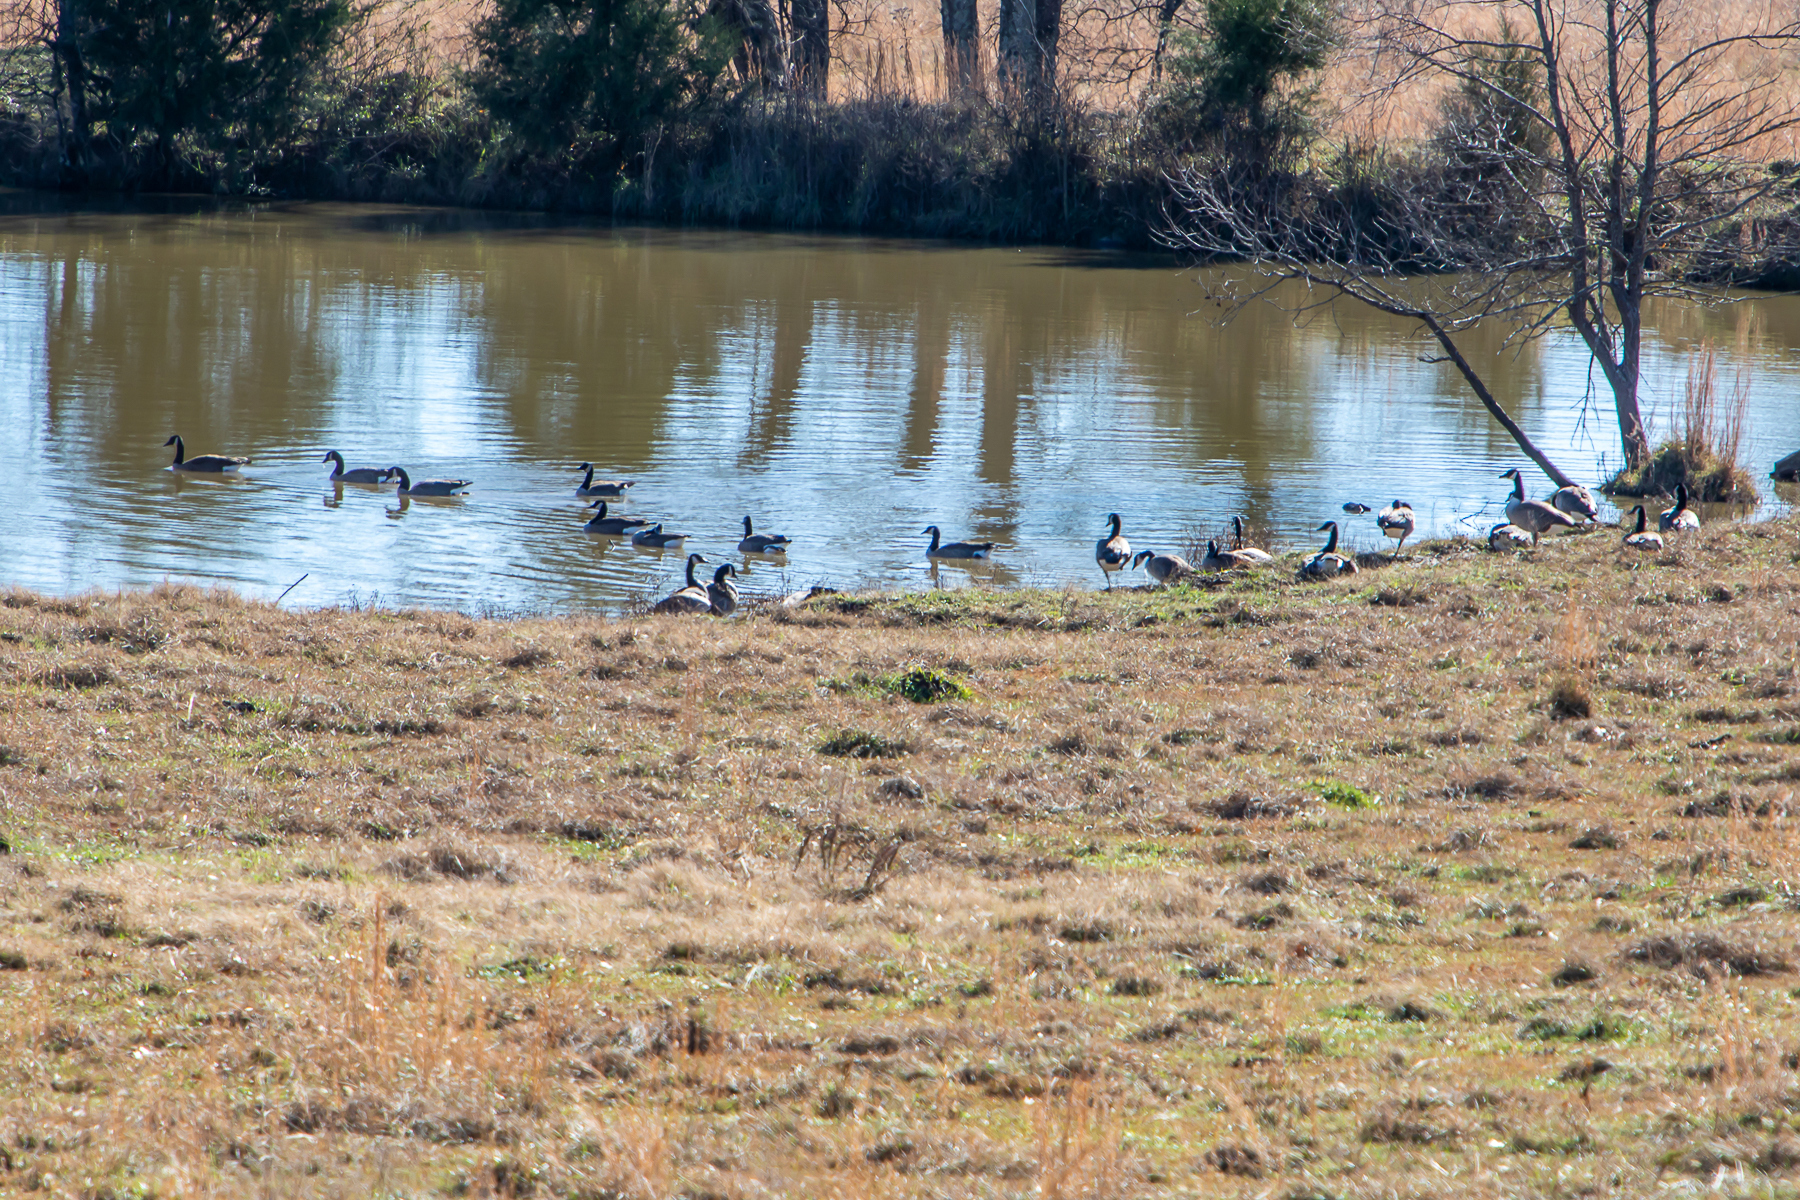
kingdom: Animalia
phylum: Chordata
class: Aves
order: Anseriformes
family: Anatidae
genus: Branta
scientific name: Branta canadensis
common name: Canada goose
